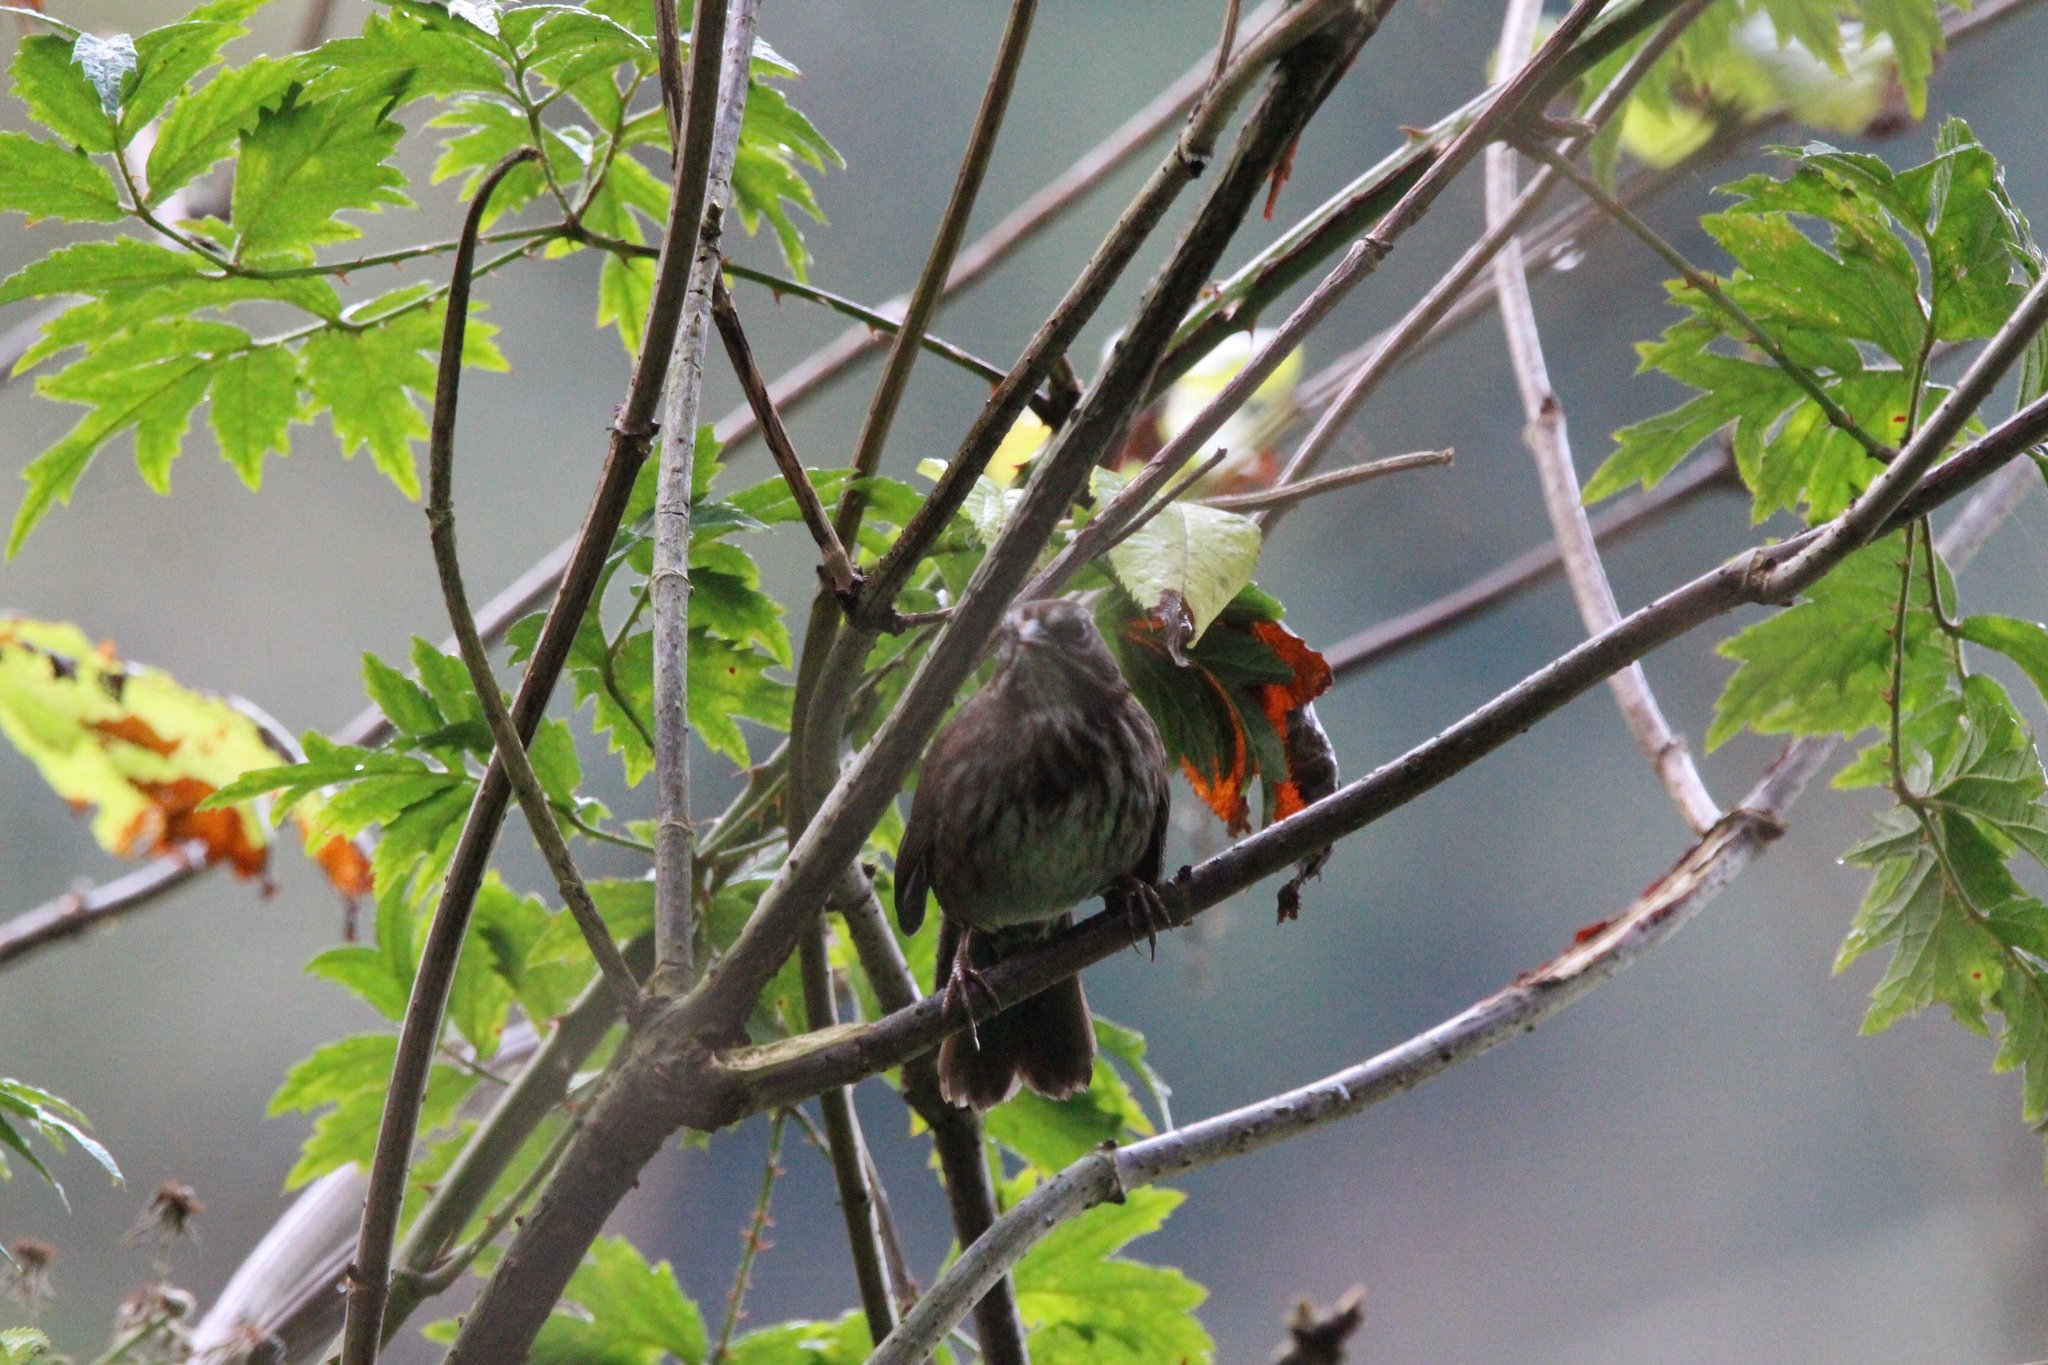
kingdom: Animalia
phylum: Chordata
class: Aves
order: Passeriformes
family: Passerellidae
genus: Melospiza
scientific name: Melospiza melodia
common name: Song sparrow
